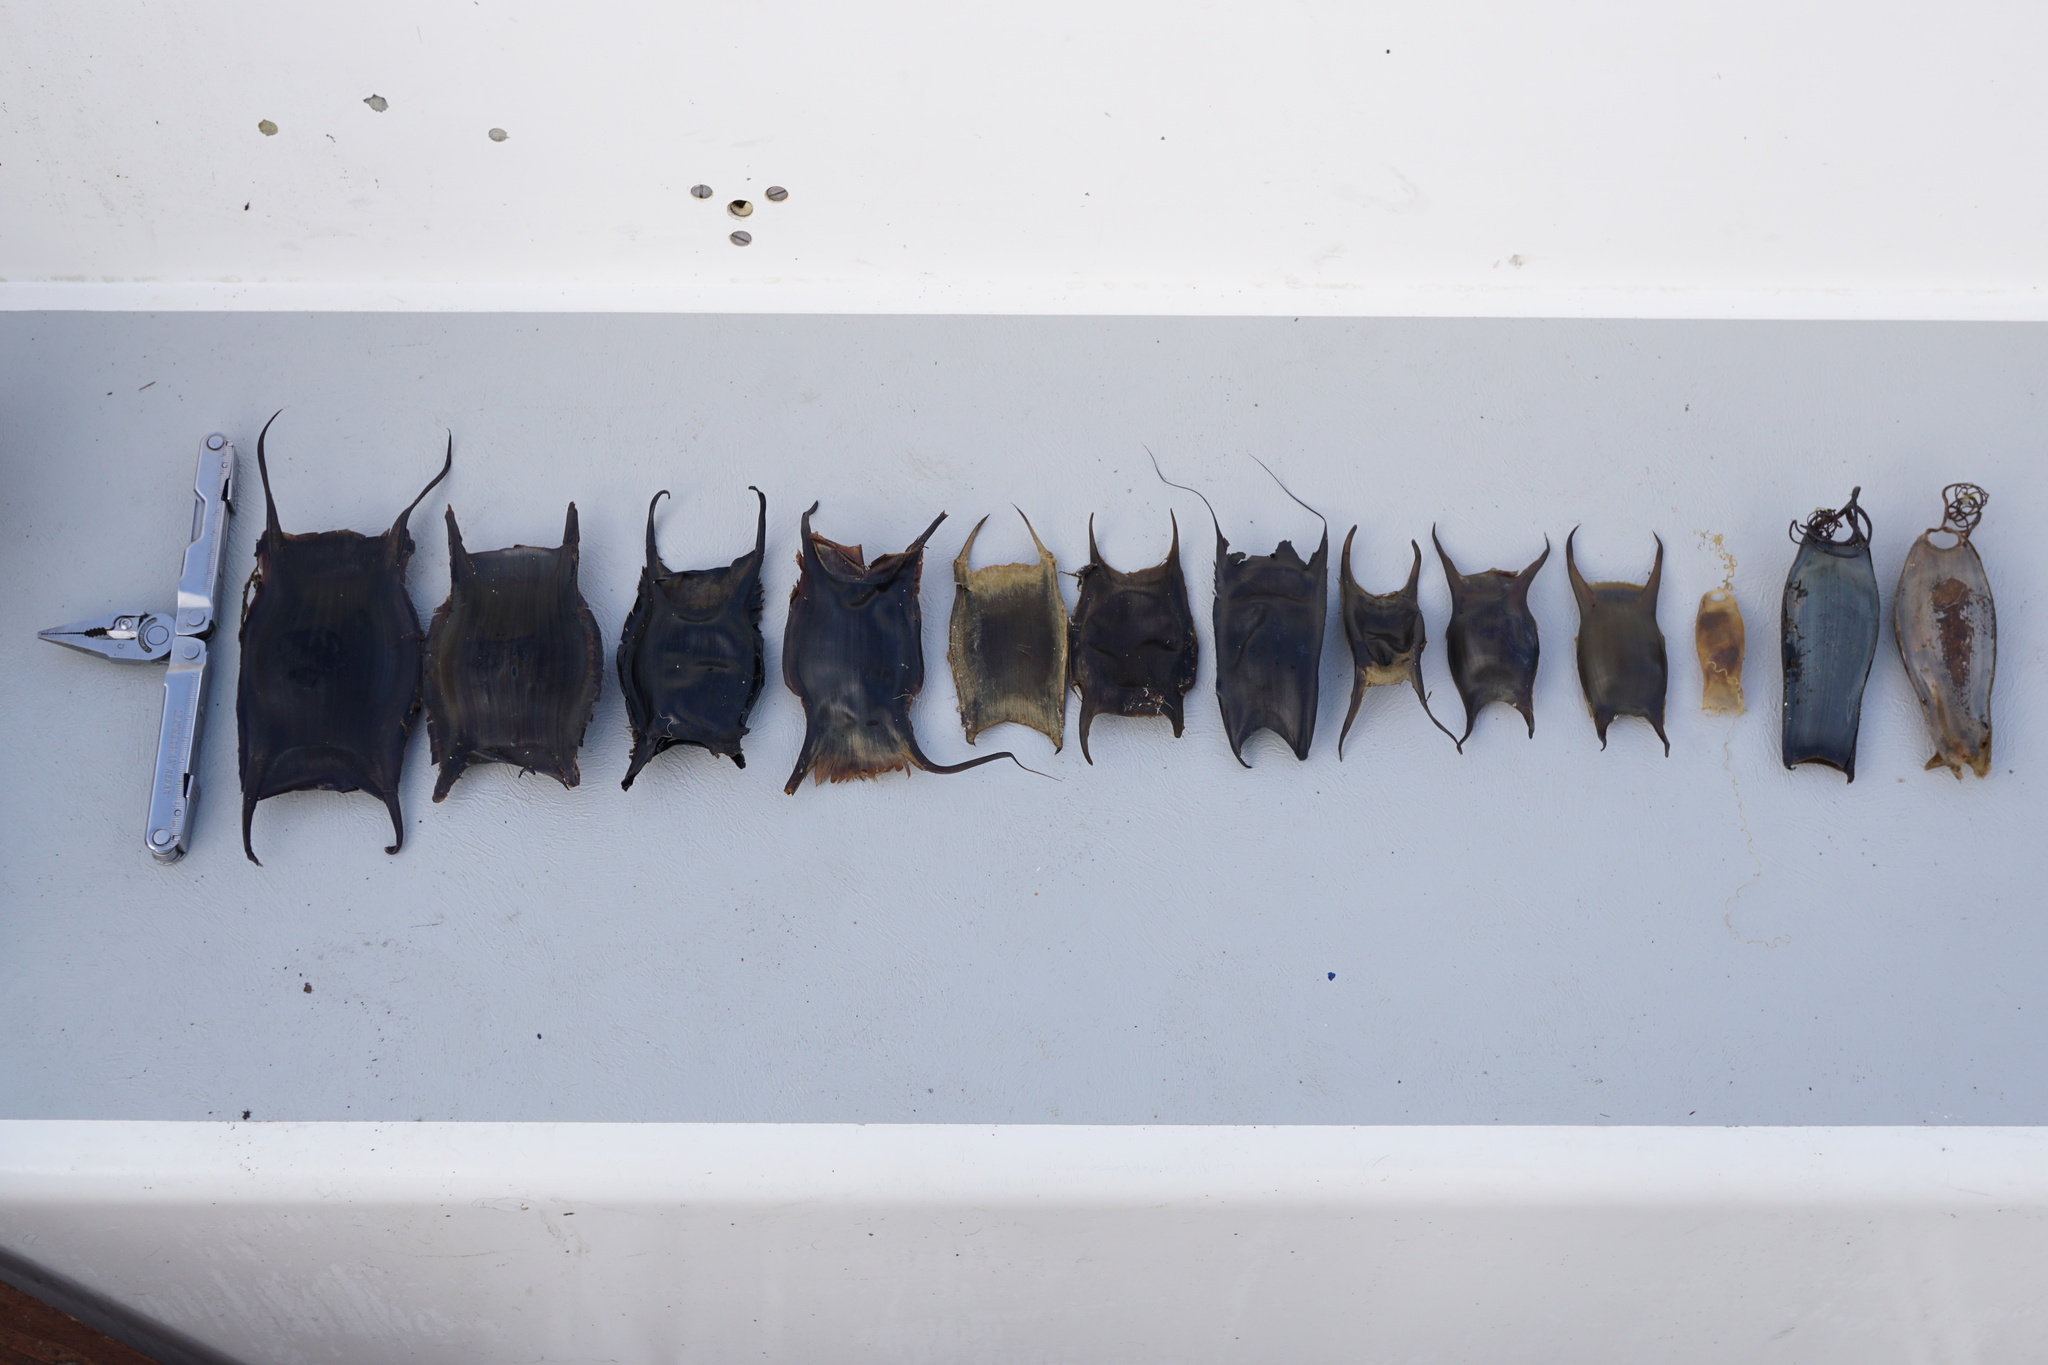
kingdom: Animalia
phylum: Chordata
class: Elasmobranchii
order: Rajiformes
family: Rajidae
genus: Raja
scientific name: Raja brachyura
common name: Blonde ray
